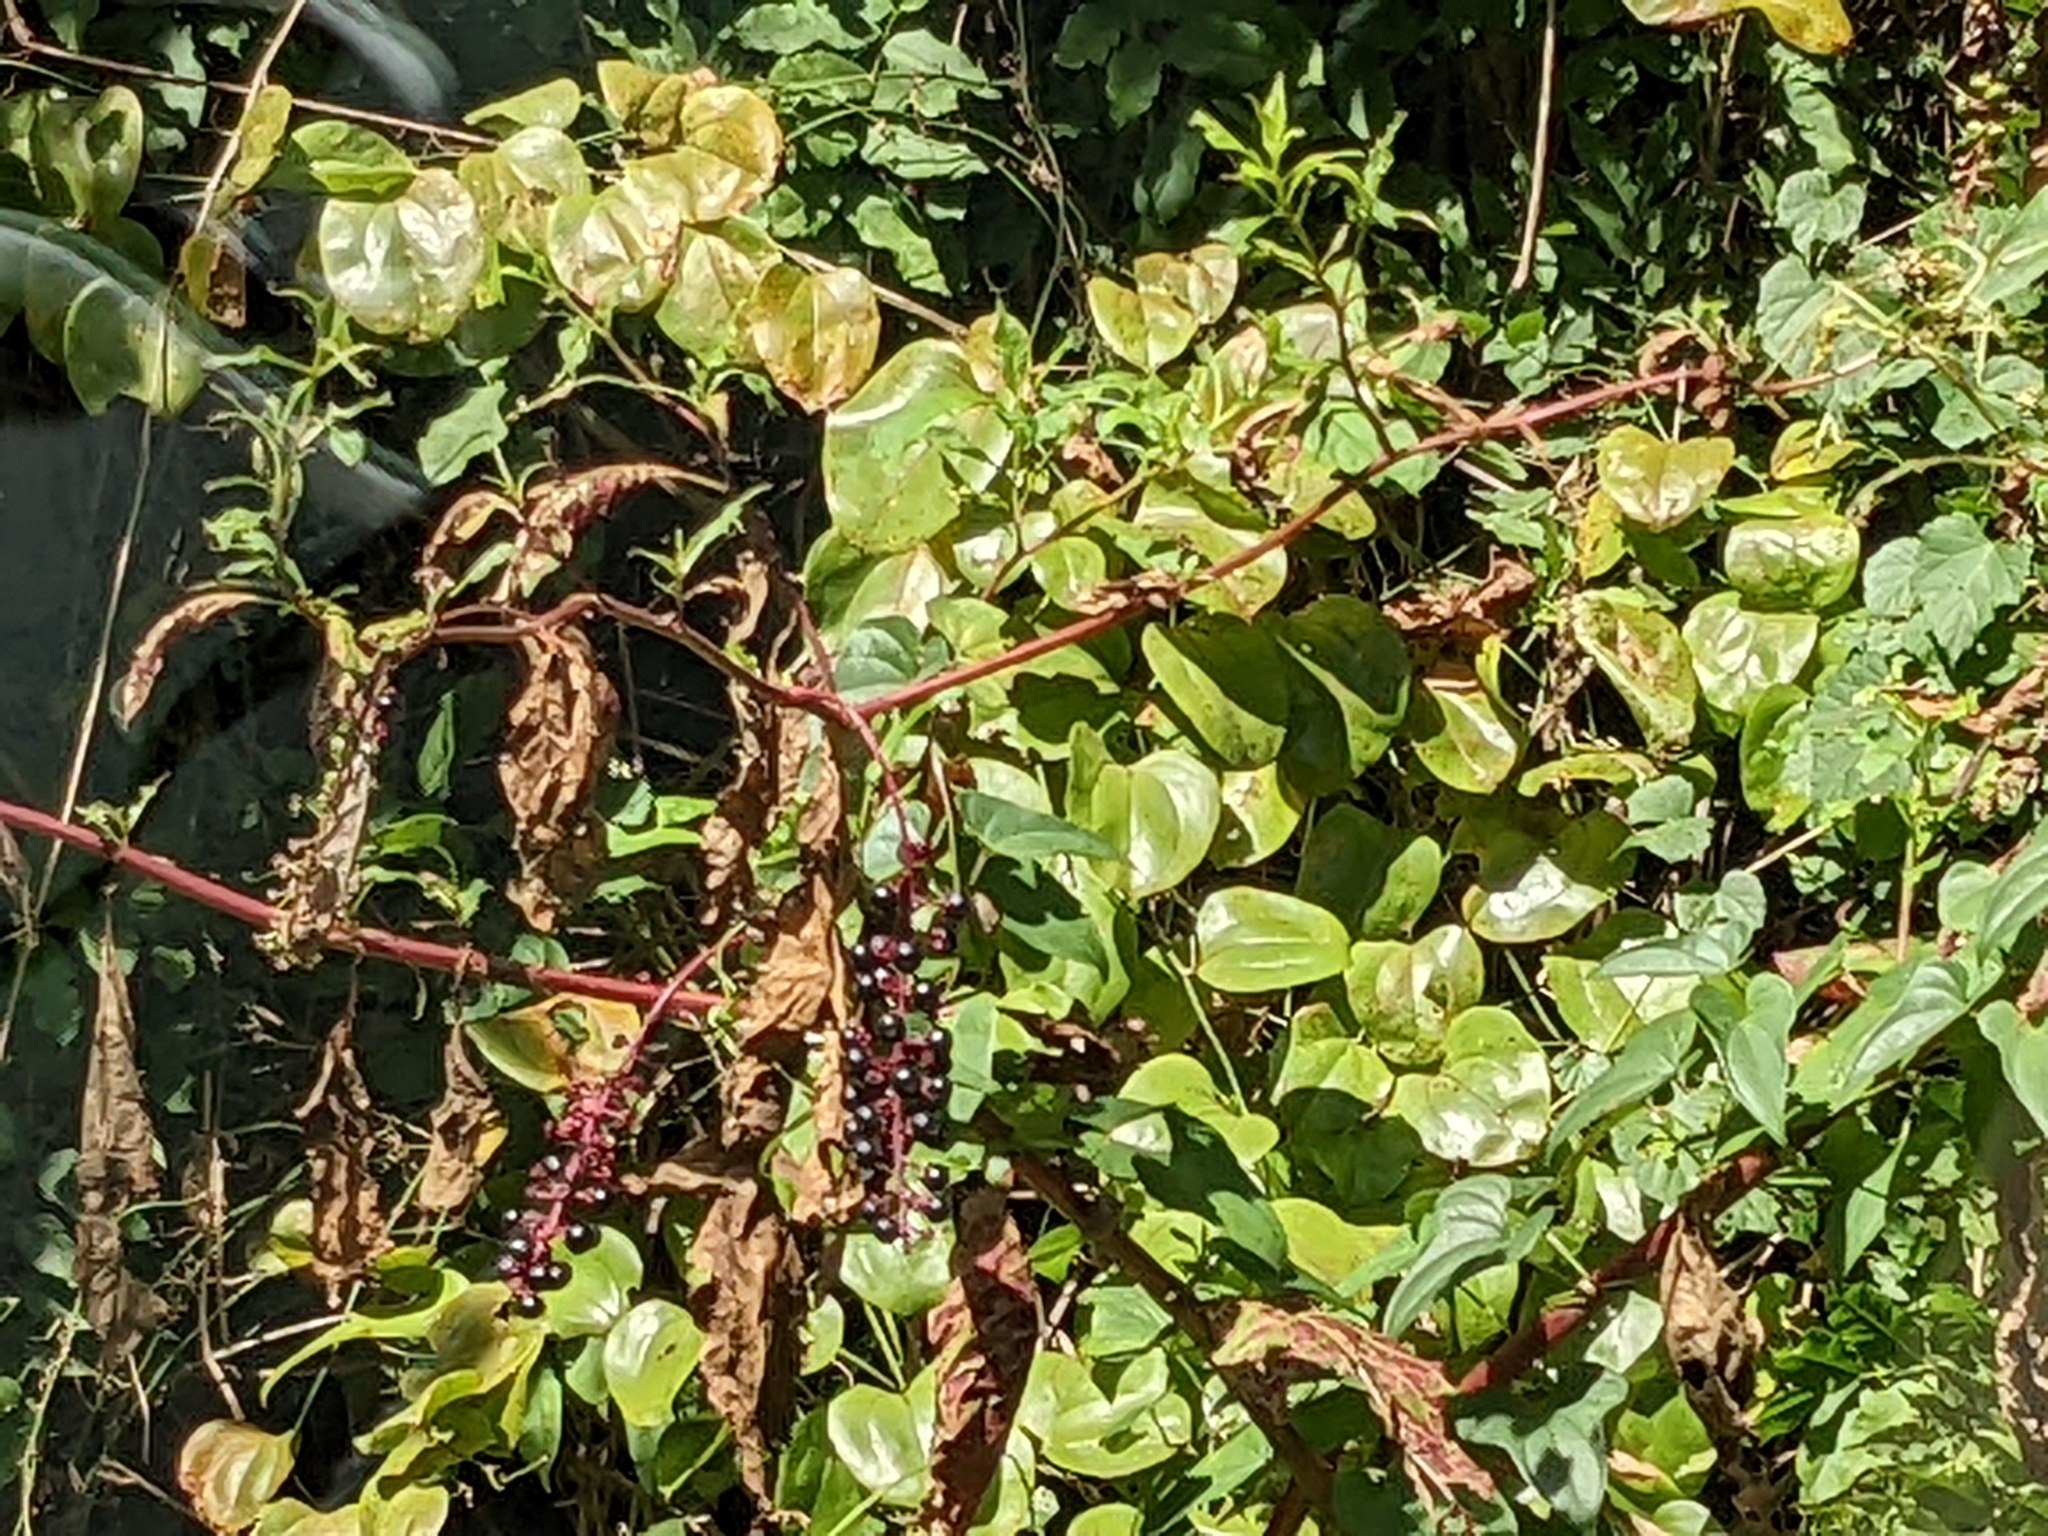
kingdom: Plantae
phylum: Tracheophyta
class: Magnoliopsida
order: Caryophyllales
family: Phytolaccaceae
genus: Phytolacca
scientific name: Phytolacca americana
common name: American pokeweed
